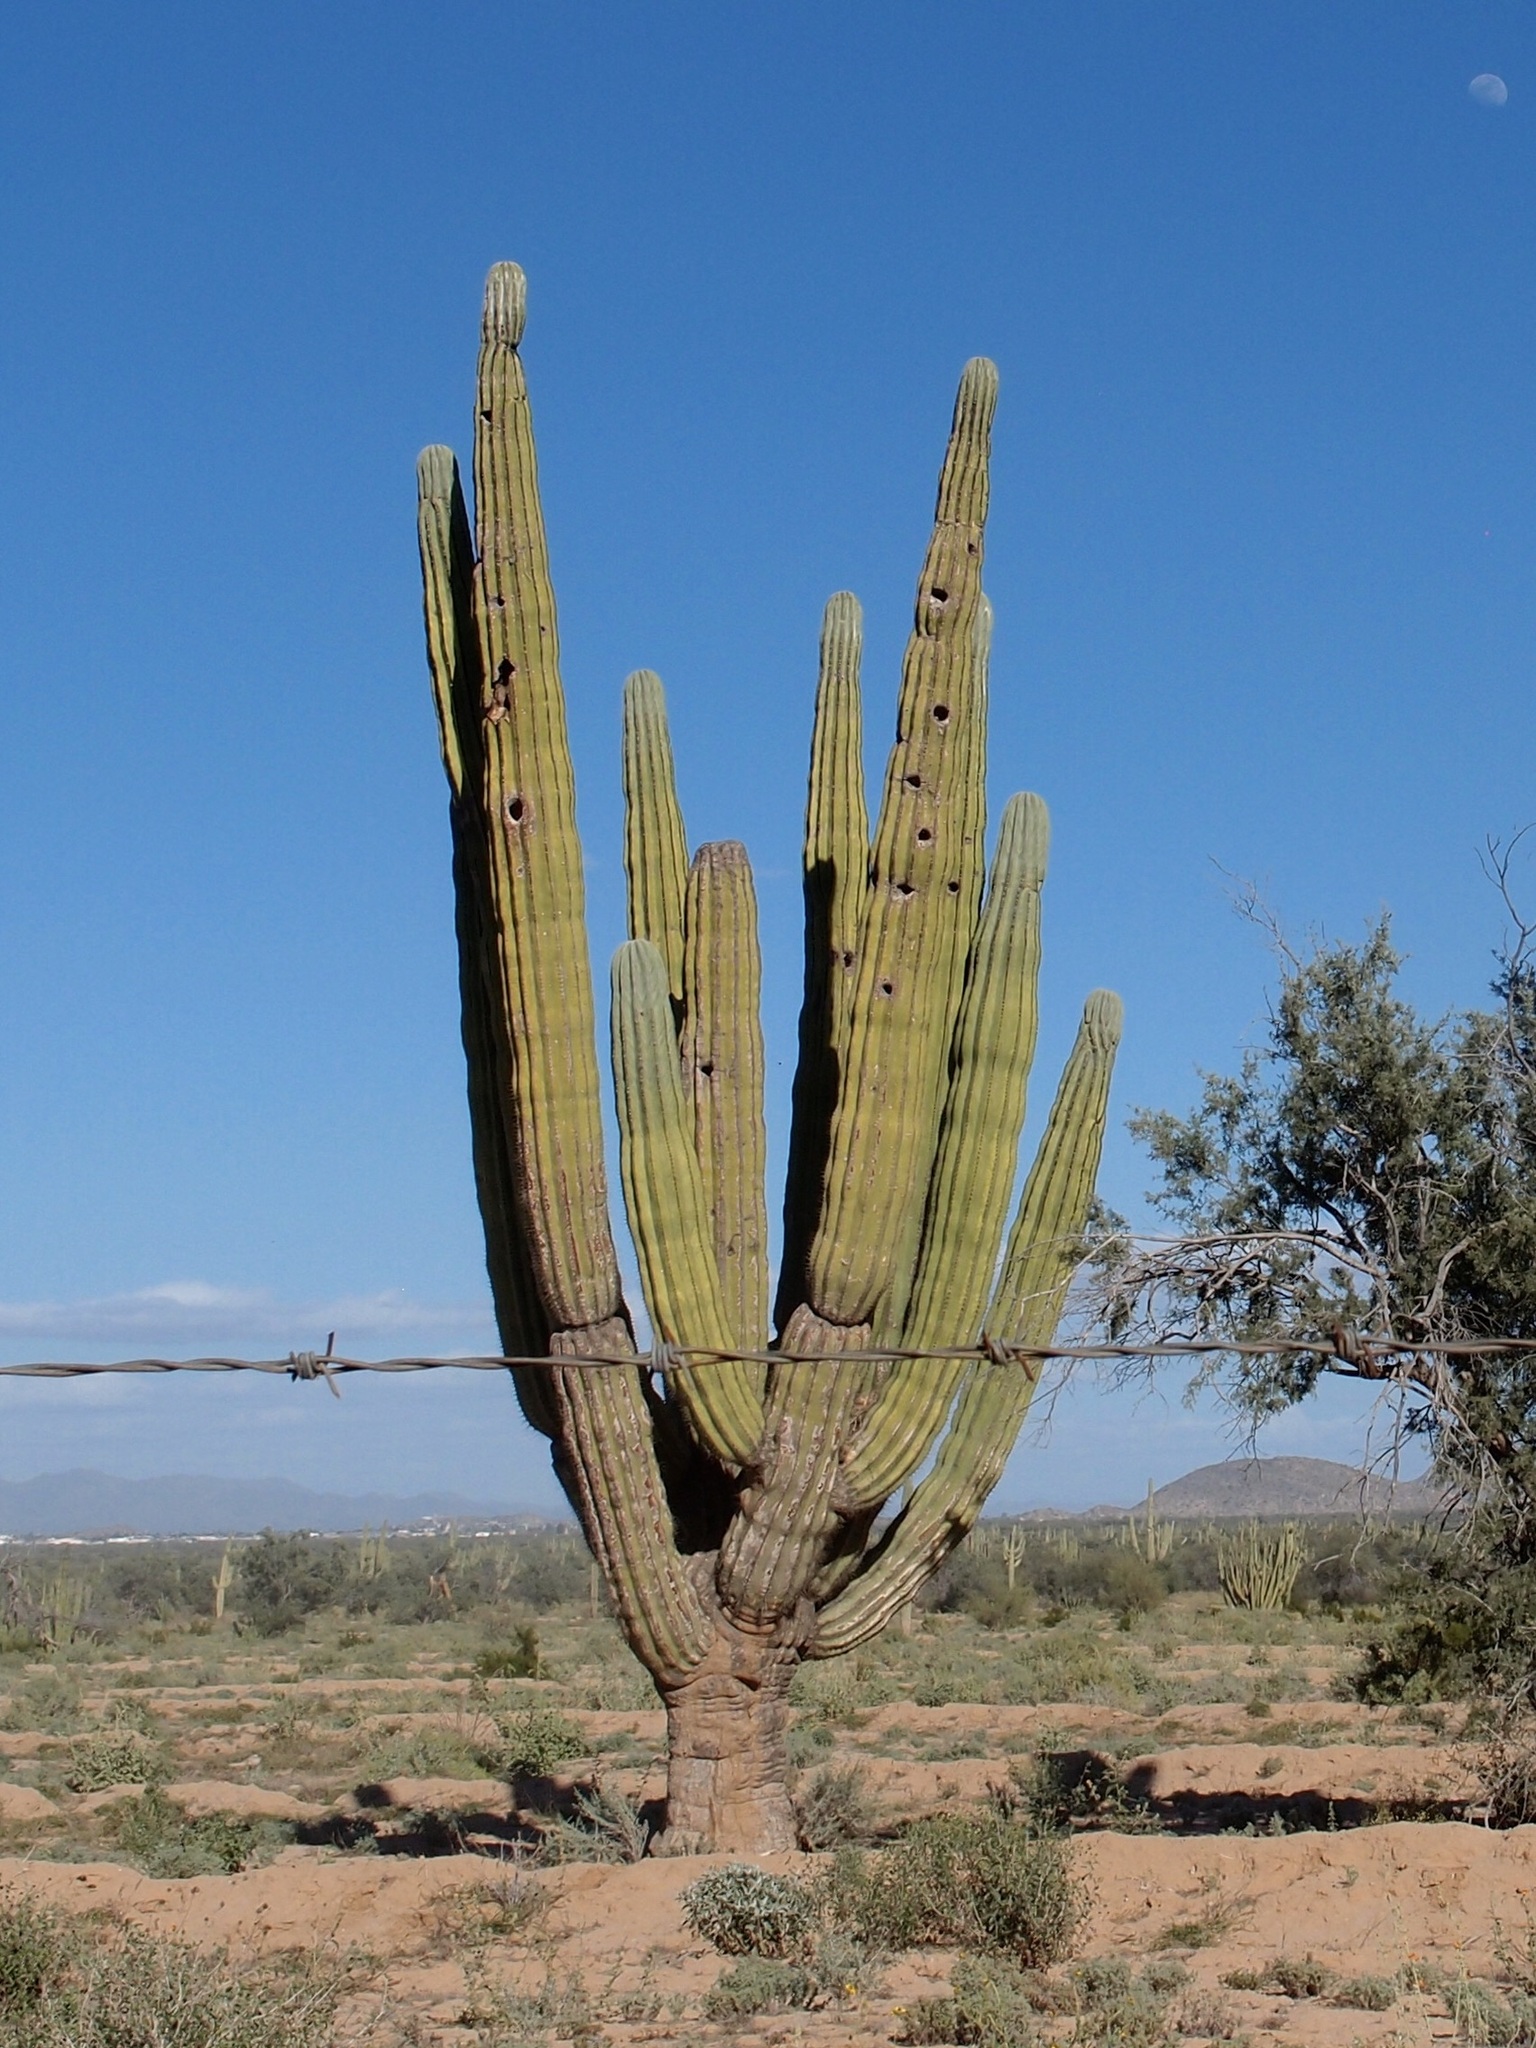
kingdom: Plantae
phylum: Tracheophyta
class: Magnoliopsida
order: Caryophyllales
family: Cactaceae
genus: Pachycereus
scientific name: Pachycereus pringlei
